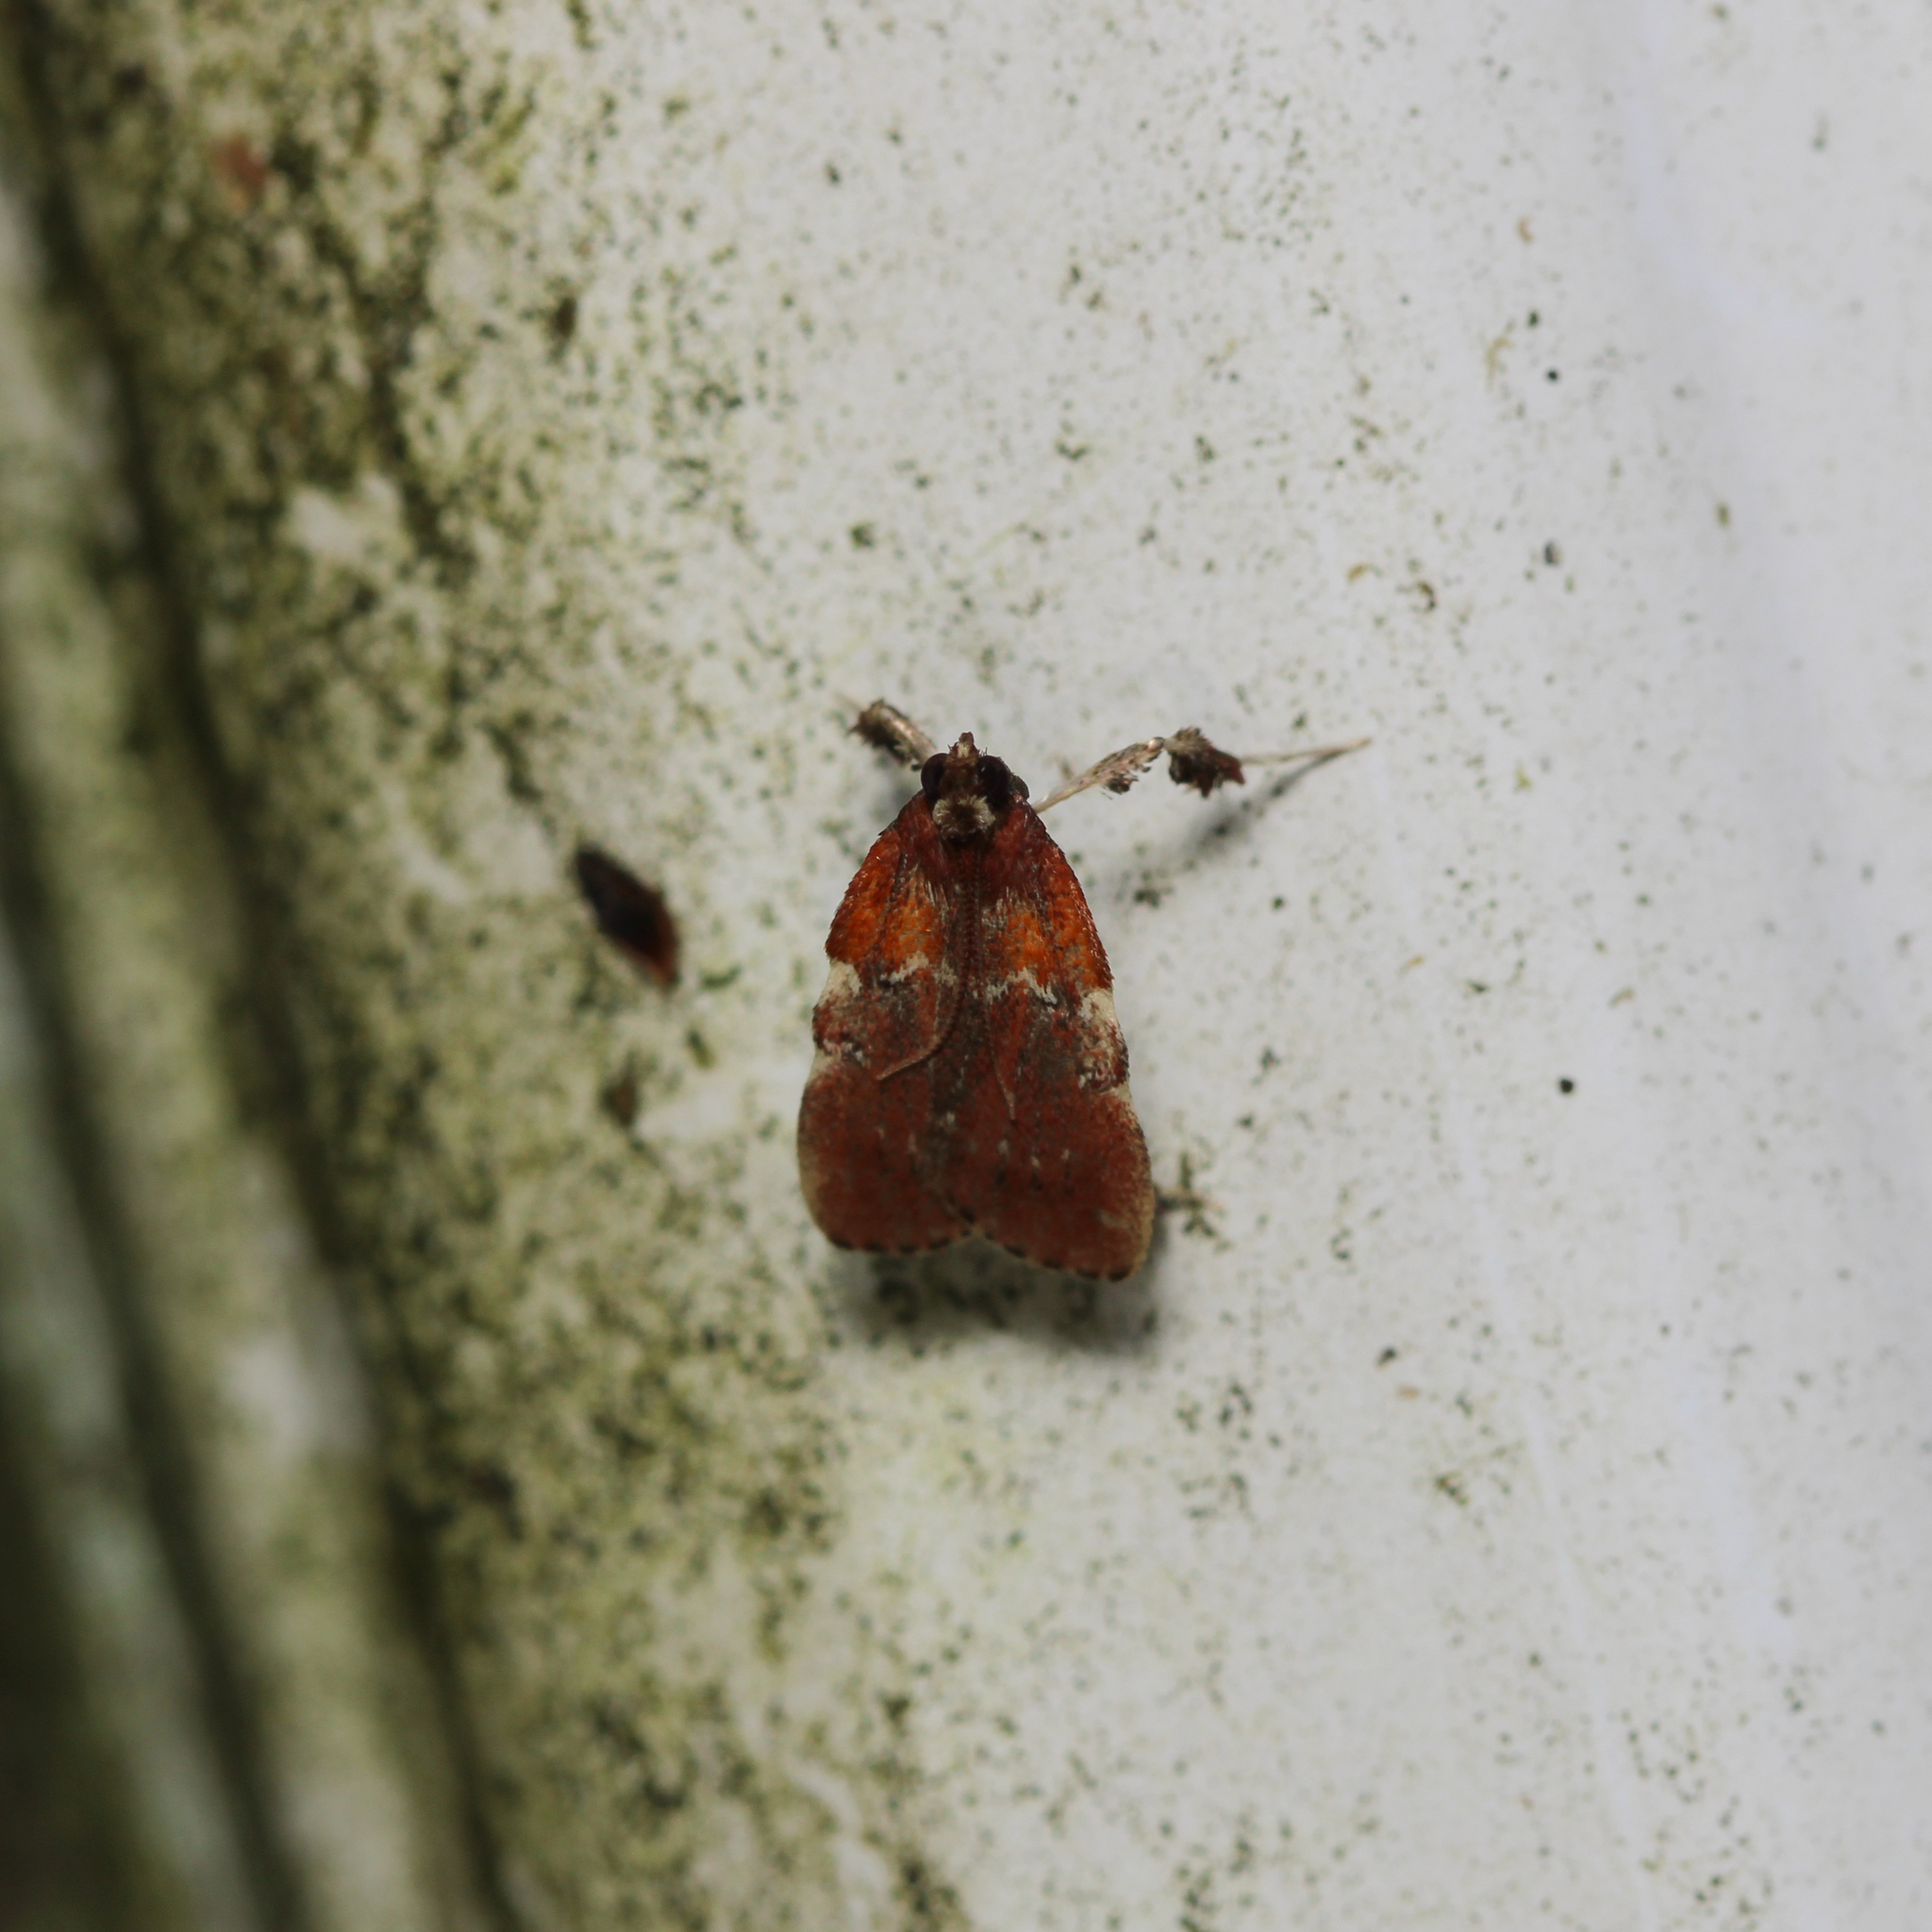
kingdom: Animalia
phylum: Arthropoda
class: Insecta
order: Lepidoptera
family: Pyralidae
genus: Galasa
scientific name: Galasa nigrinodis
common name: Boxwood leaftier moth
